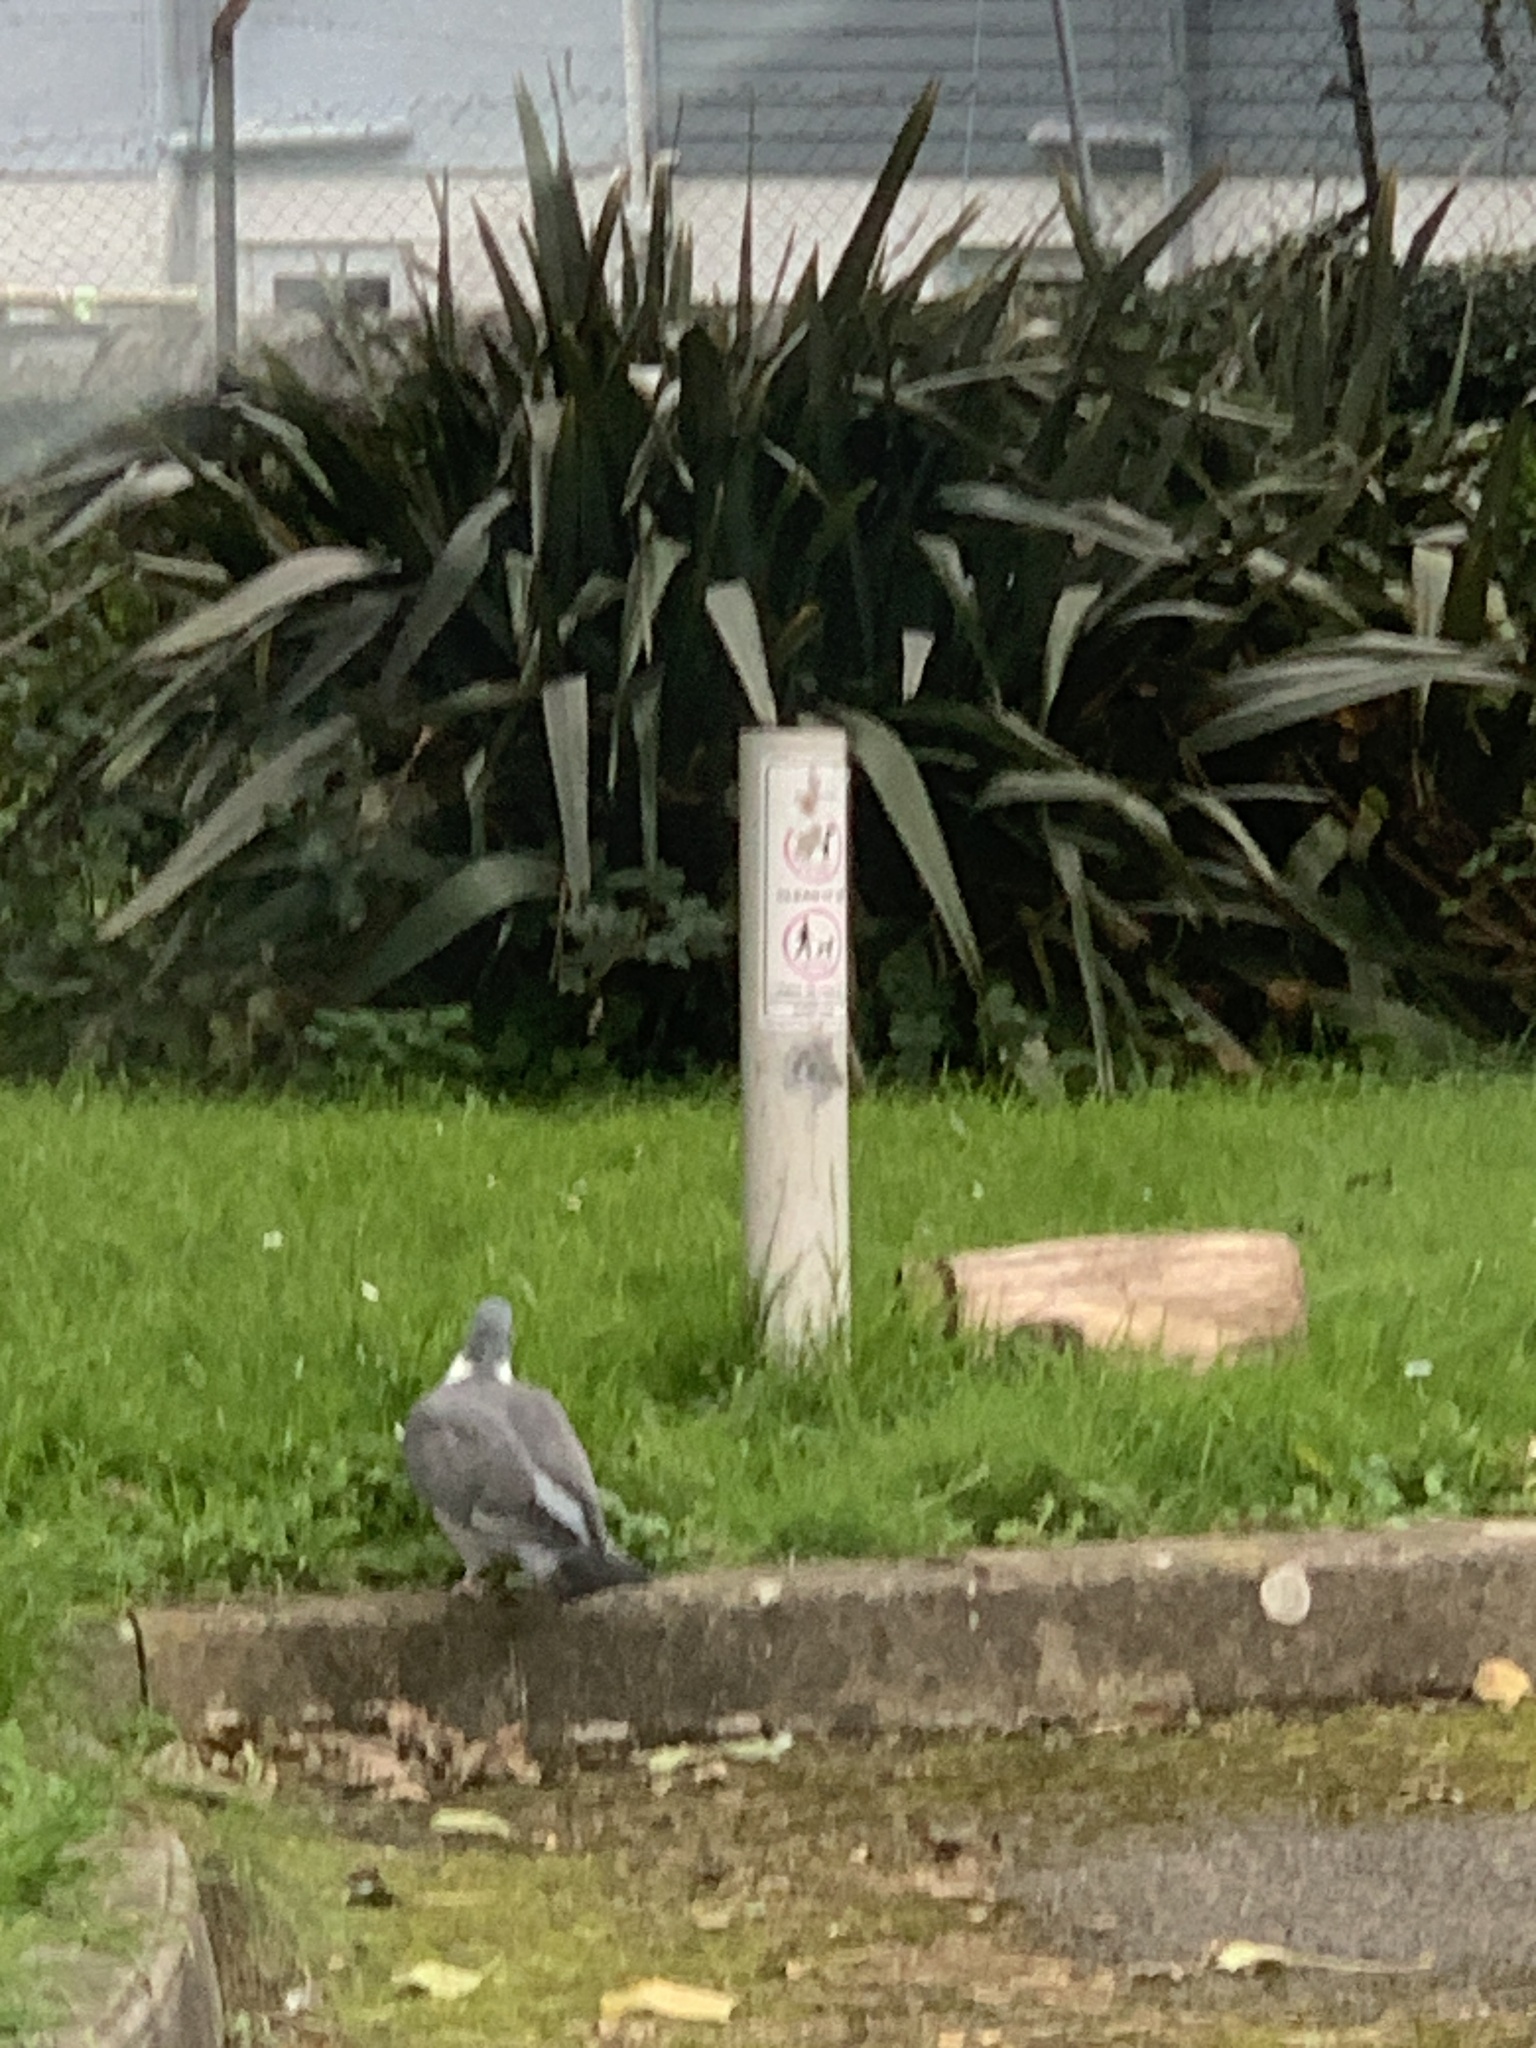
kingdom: Animalia
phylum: Chordata
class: Aves
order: Columbiformes
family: Columbidae
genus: Columba
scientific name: Columba palumbus
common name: Common wood pigeon
